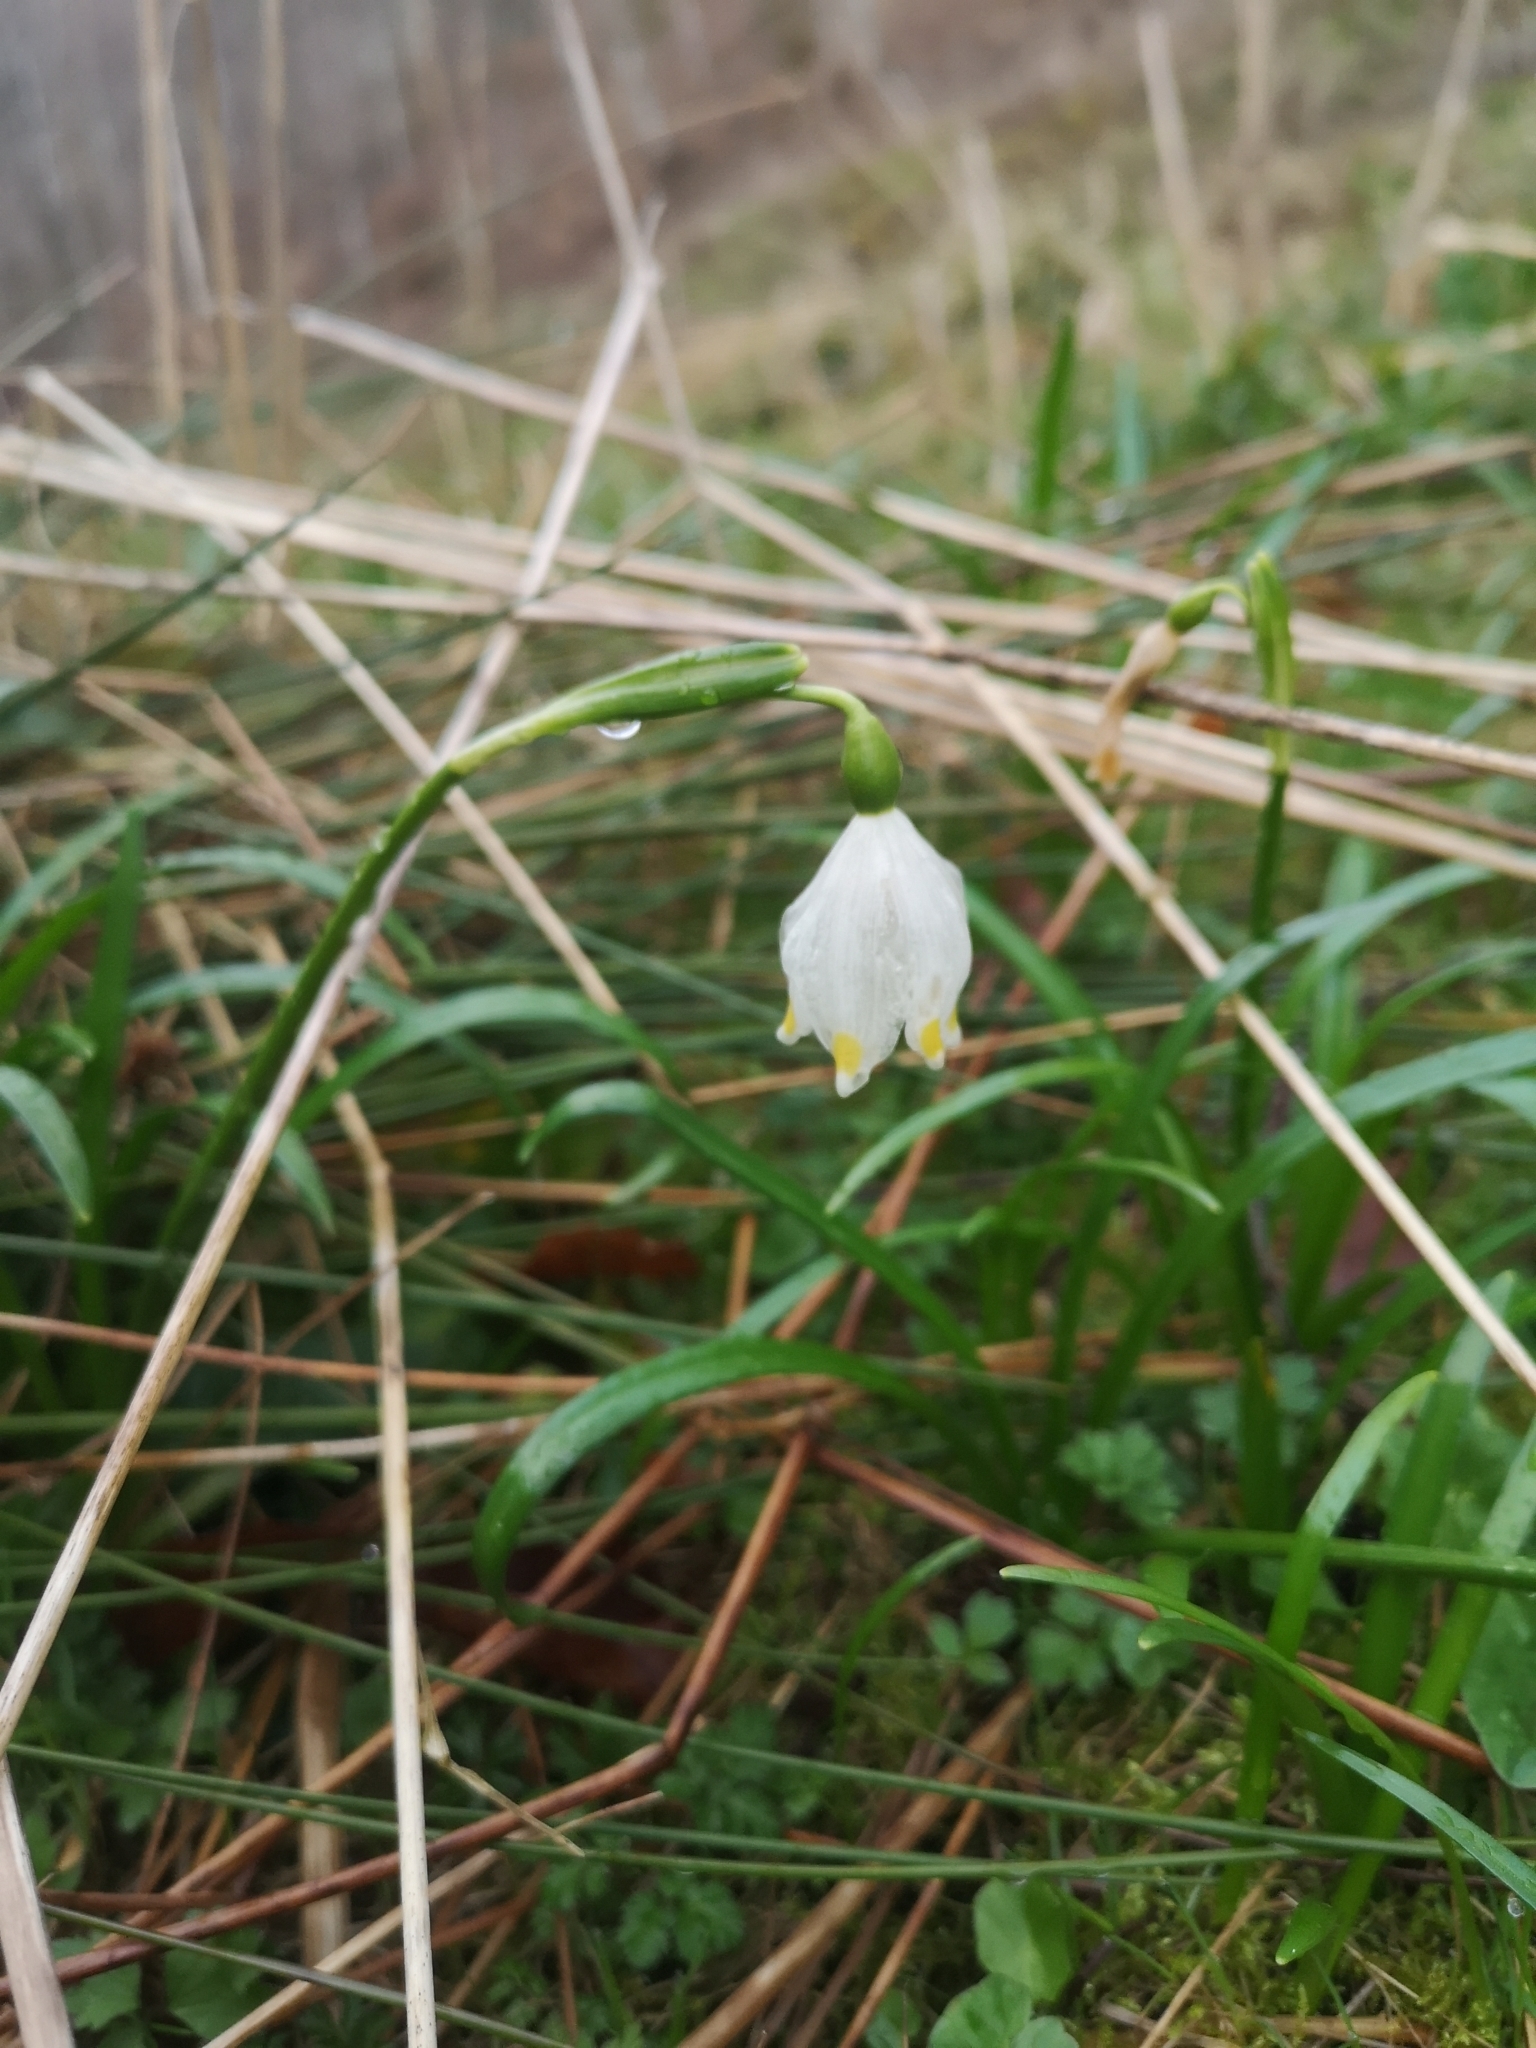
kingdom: Plantae
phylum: Tracheophyta
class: Liliopsida
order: Asparagales
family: Amaryllidaceae
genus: Leucojum
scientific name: Leucojum vernum
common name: Spring snowflake
